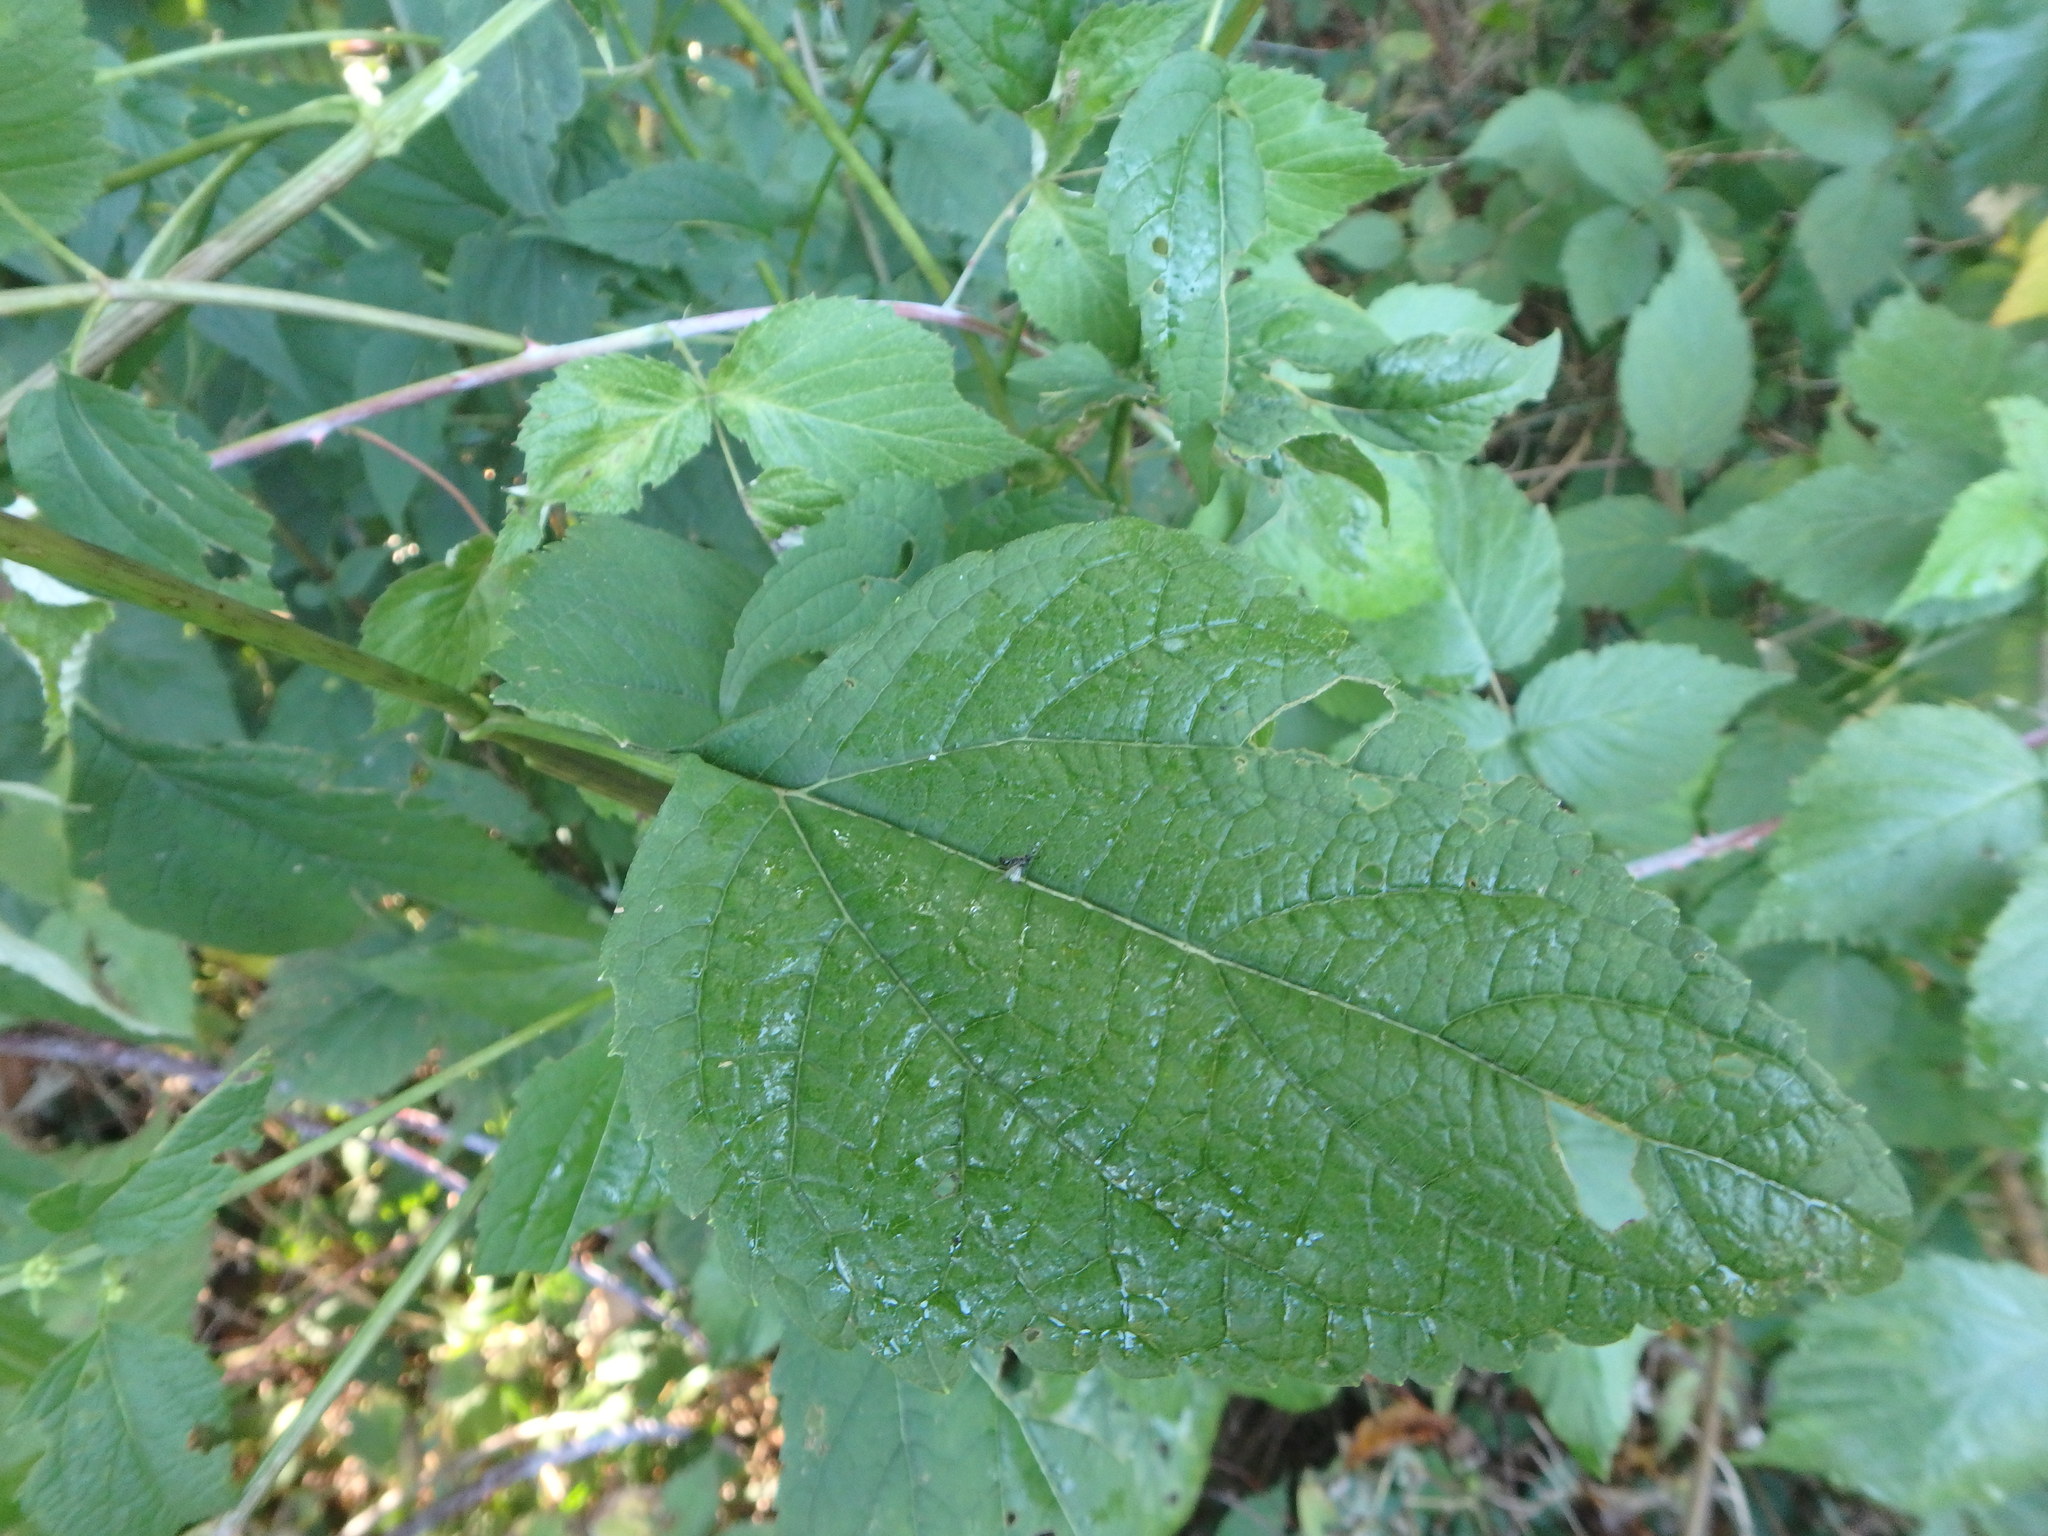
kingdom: Plantae
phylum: Tracheophyta
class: Magnoliopsida
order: Asterales
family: Asteraceae
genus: Ageratina
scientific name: Ageratina altissima
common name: White snakeroot
